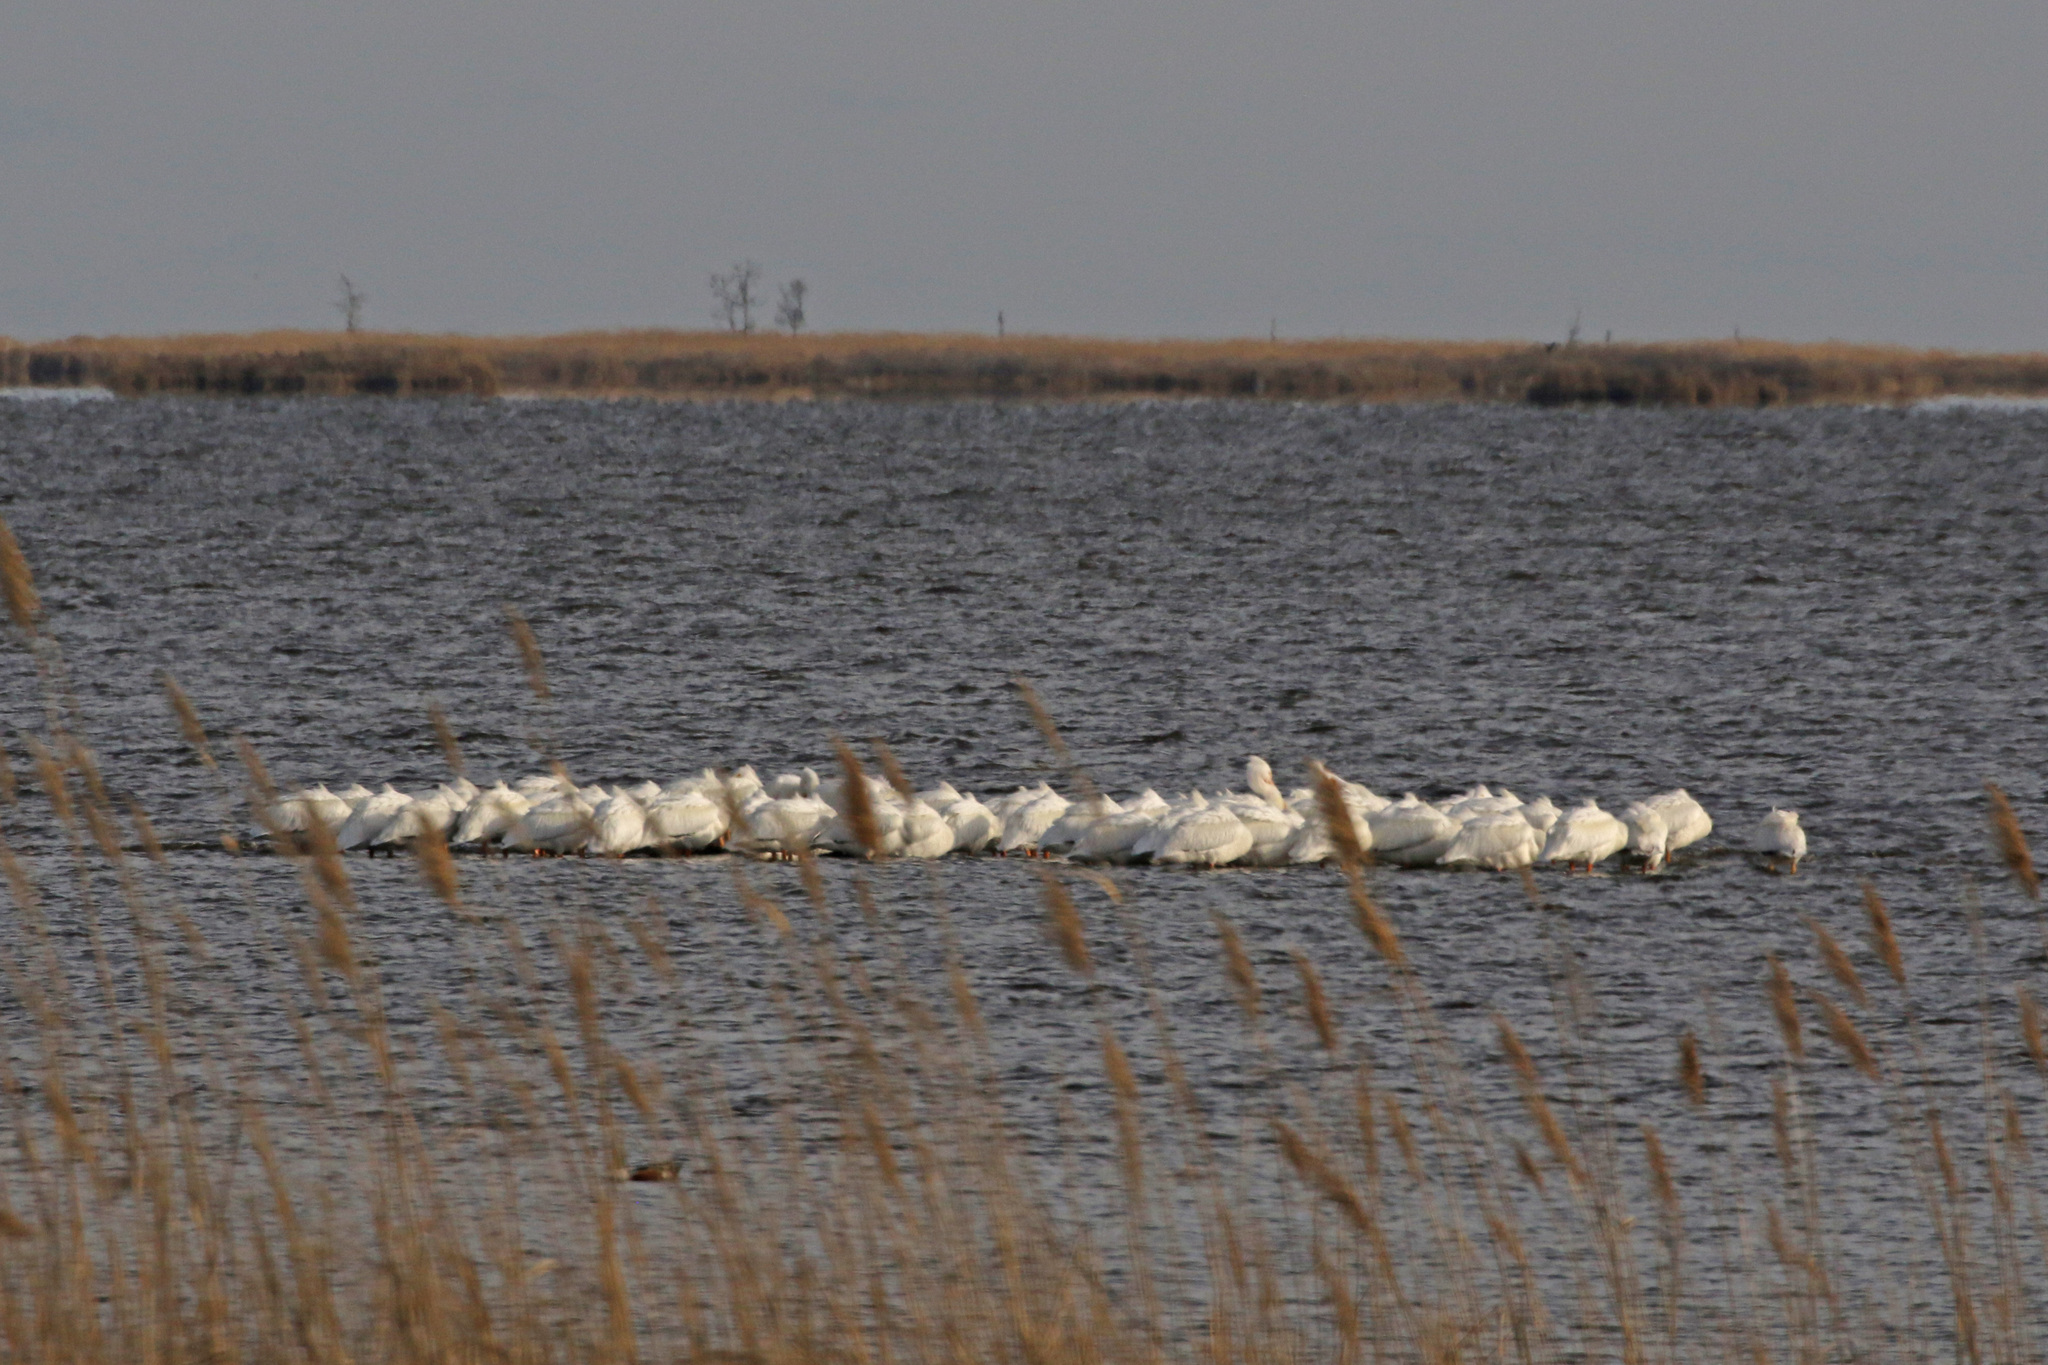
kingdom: Animalia
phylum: Chordata
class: Aves
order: Pelecaniformes
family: Pelecanidae
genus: Pelecanus
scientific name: Pelecanus erythrorhynchos
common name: American white pelican
